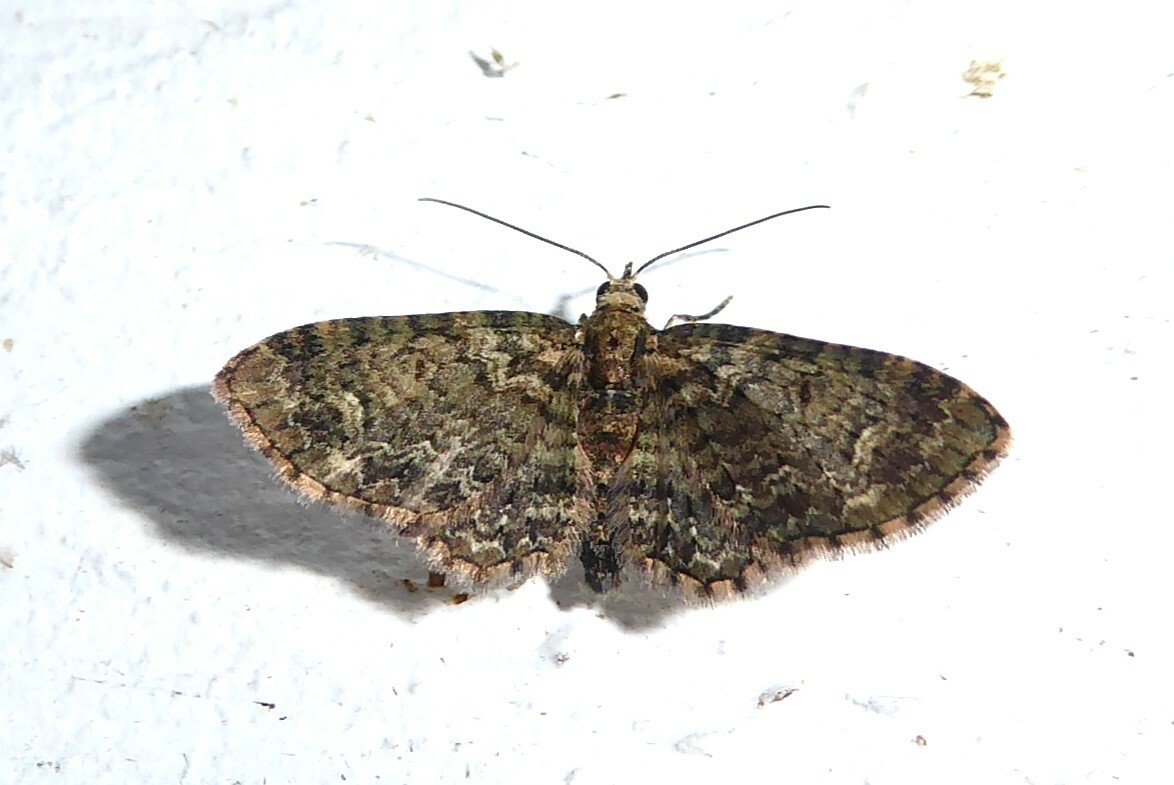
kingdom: Animalia
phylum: Arthropoda
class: Insecta
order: Lepidoptera
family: Geometridae
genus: Pasiphilodes
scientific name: Pasiphilodes testulata
